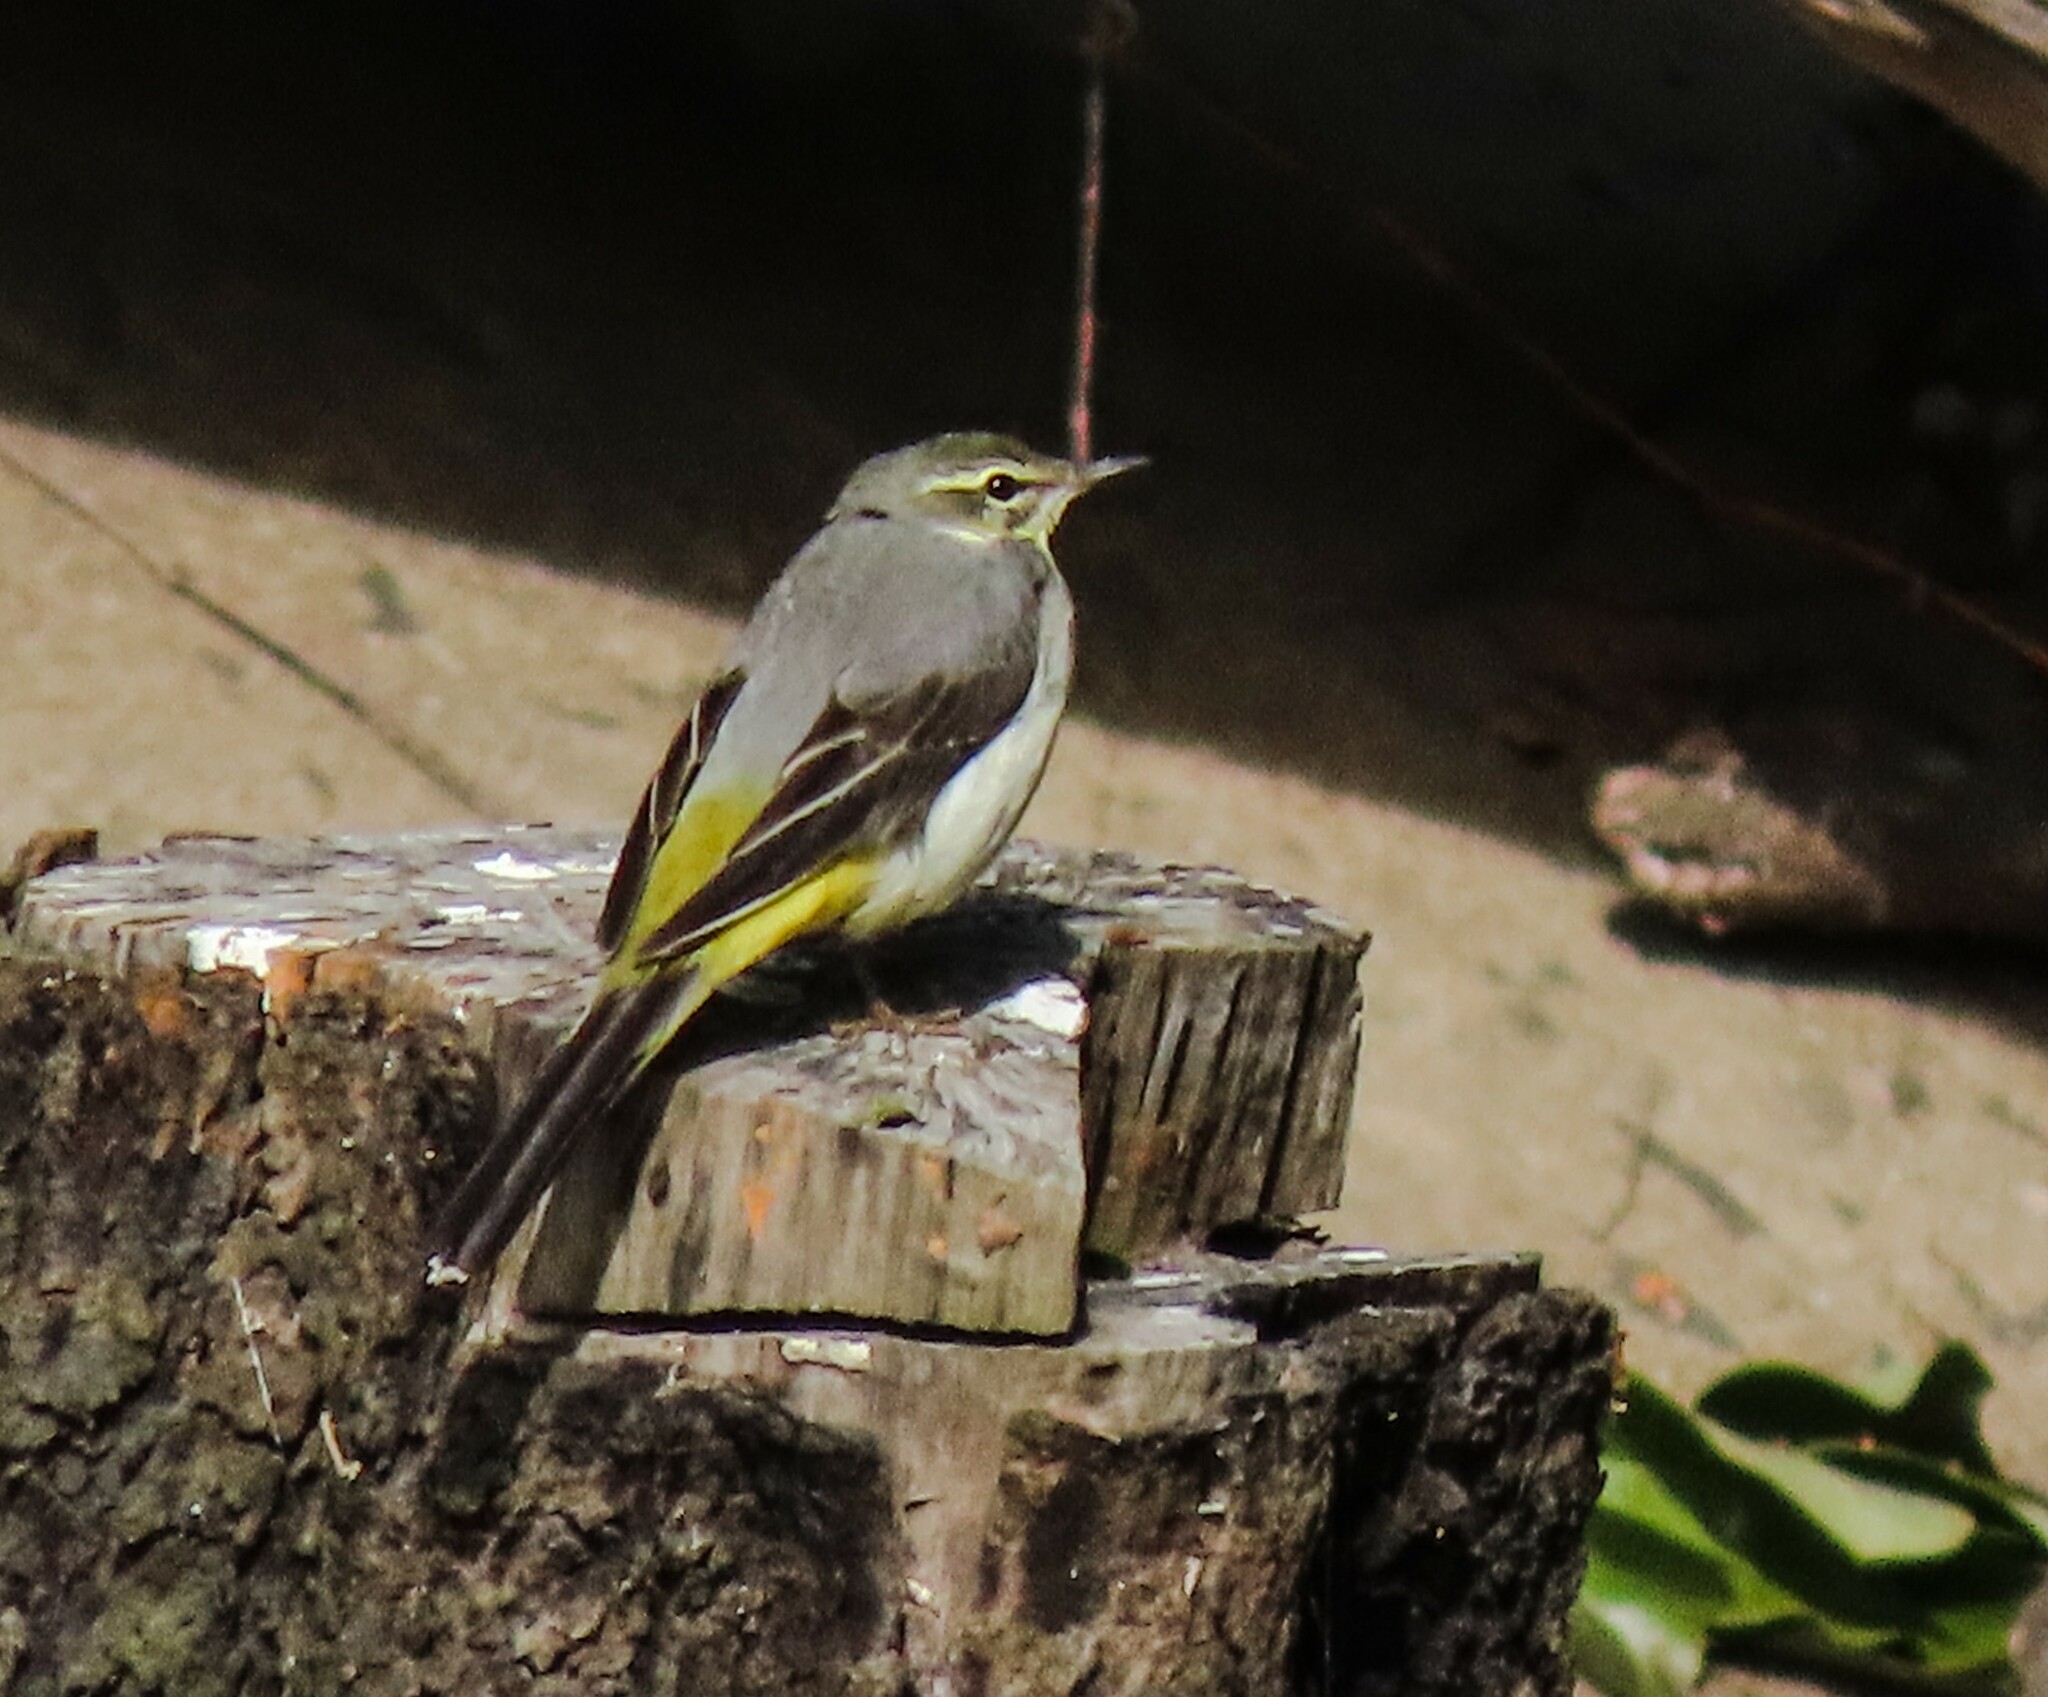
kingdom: Animalia
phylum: Chordata
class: Aves
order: Passeriformes
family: Motacillidae
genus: Motacilla
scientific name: Motacilla cinerea
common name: Grey wagtail
